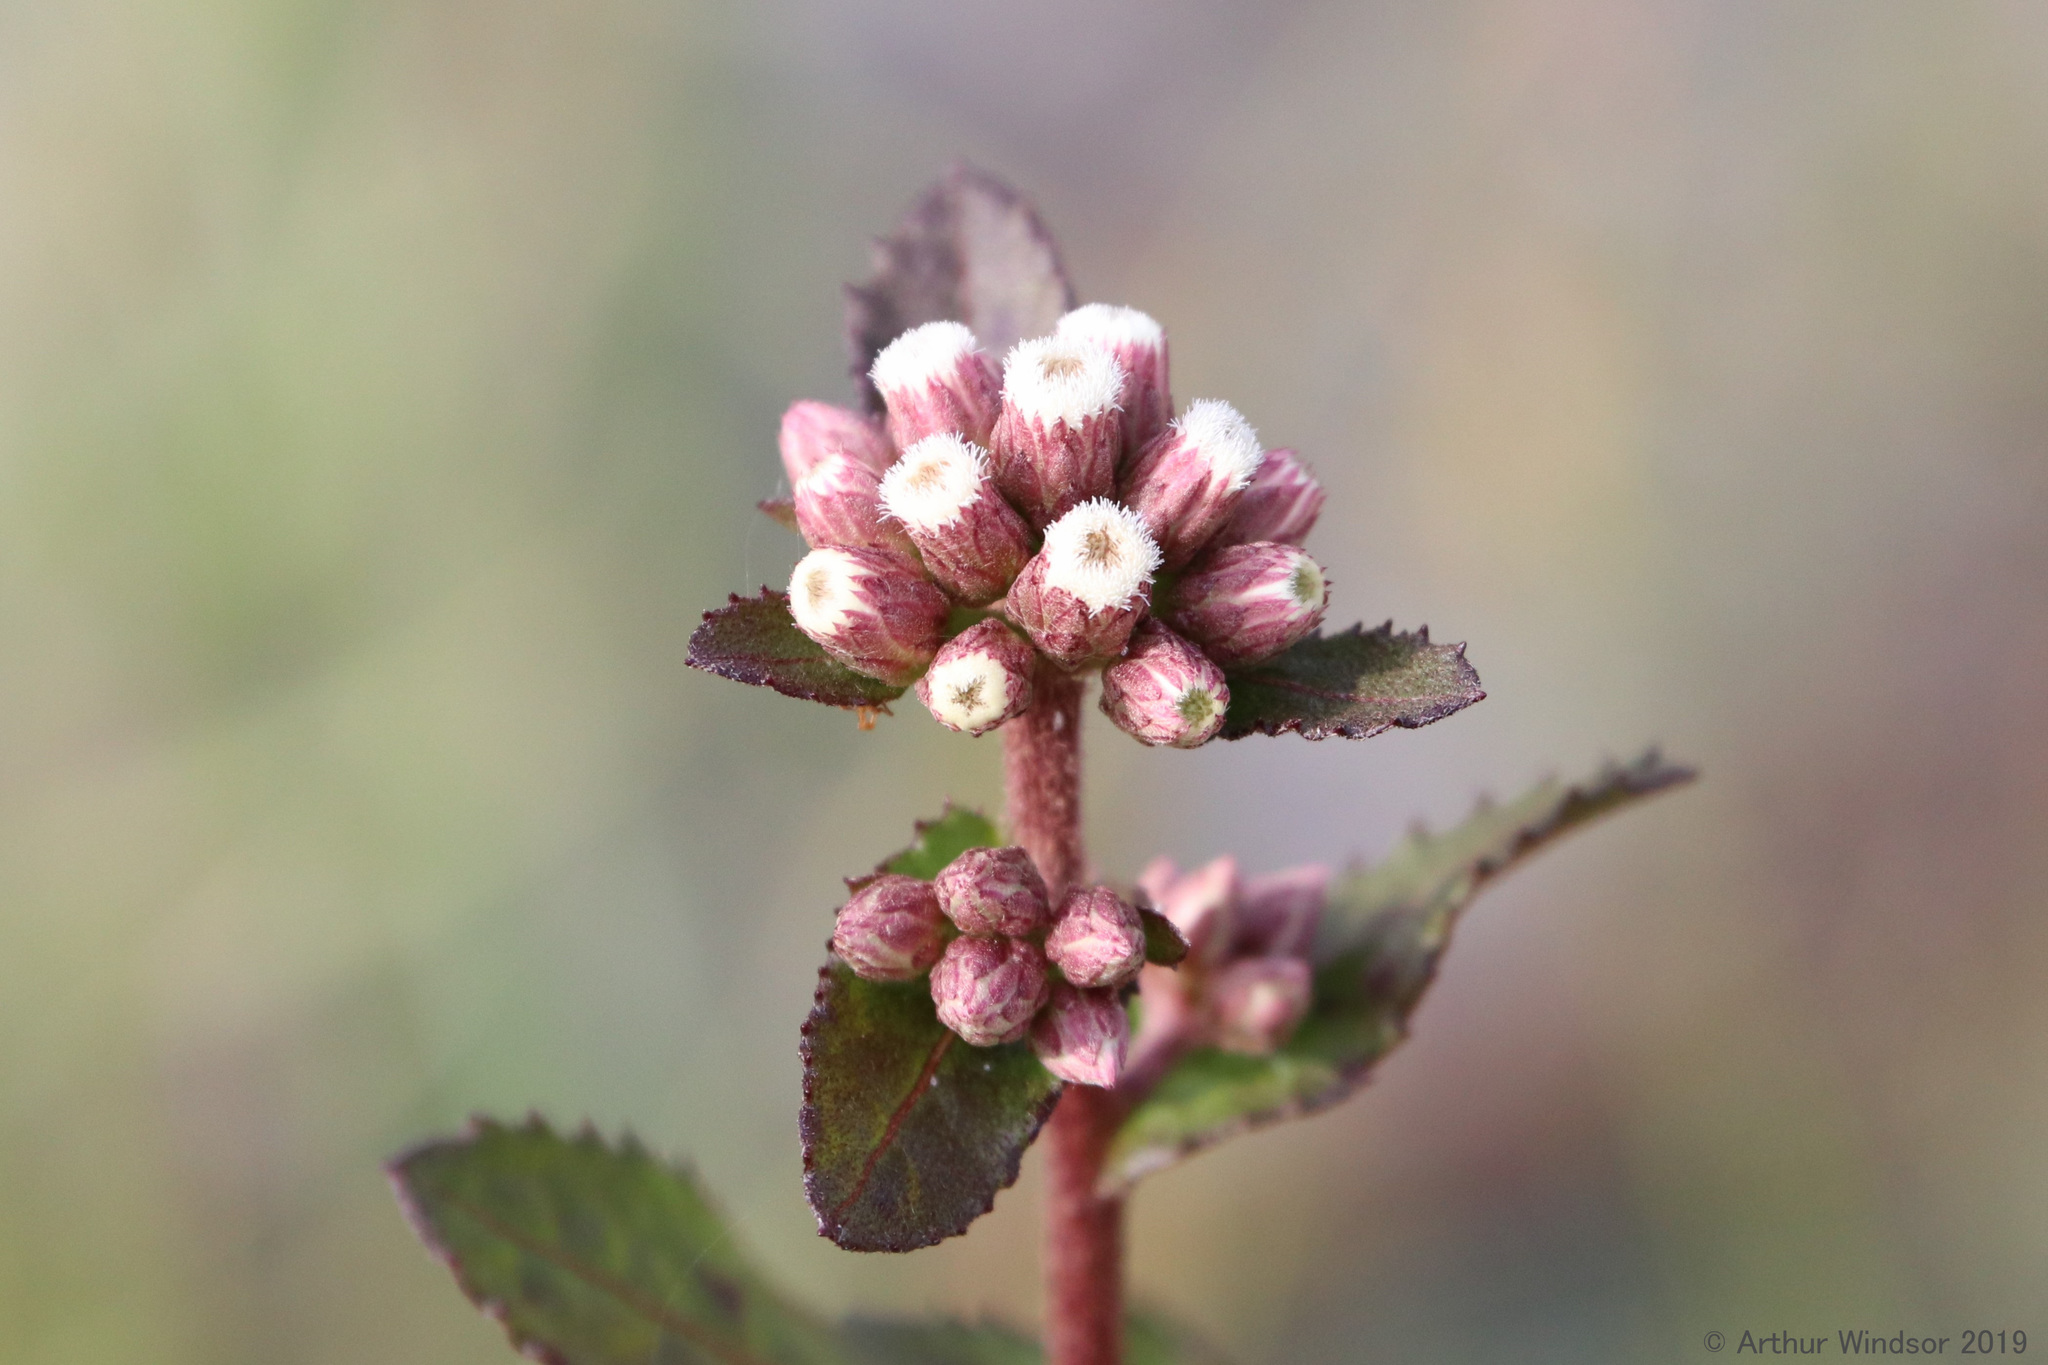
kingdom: Plantae
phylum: Tracheophyta
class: Magnoliopsida
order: Asterales
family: Asteraceae
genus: Pluchea
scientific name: Pluchea foetida
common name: Stinking camphorweed
